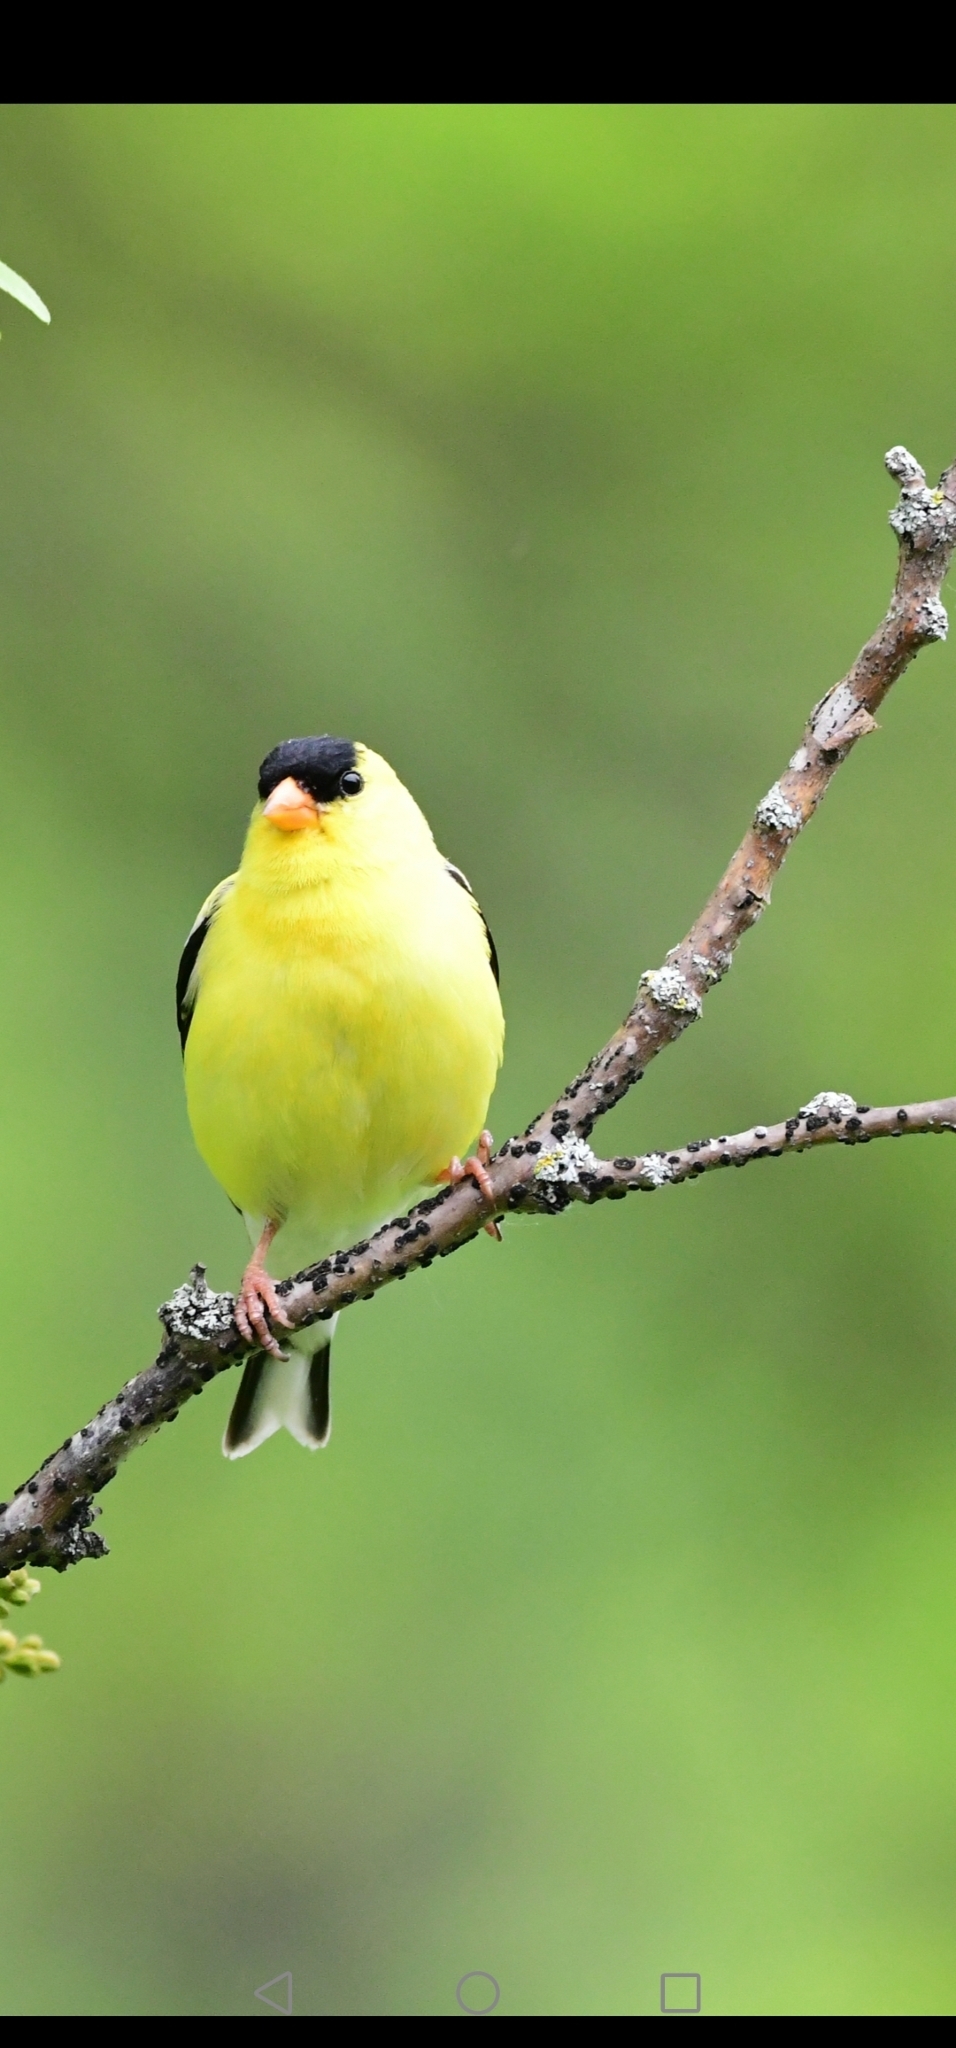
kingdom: Animalia
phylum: Chordata
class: Aves
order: Passeriformes
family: Fringillidae
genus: Spinus
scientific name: Spinus tristis
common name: American goldfinch
